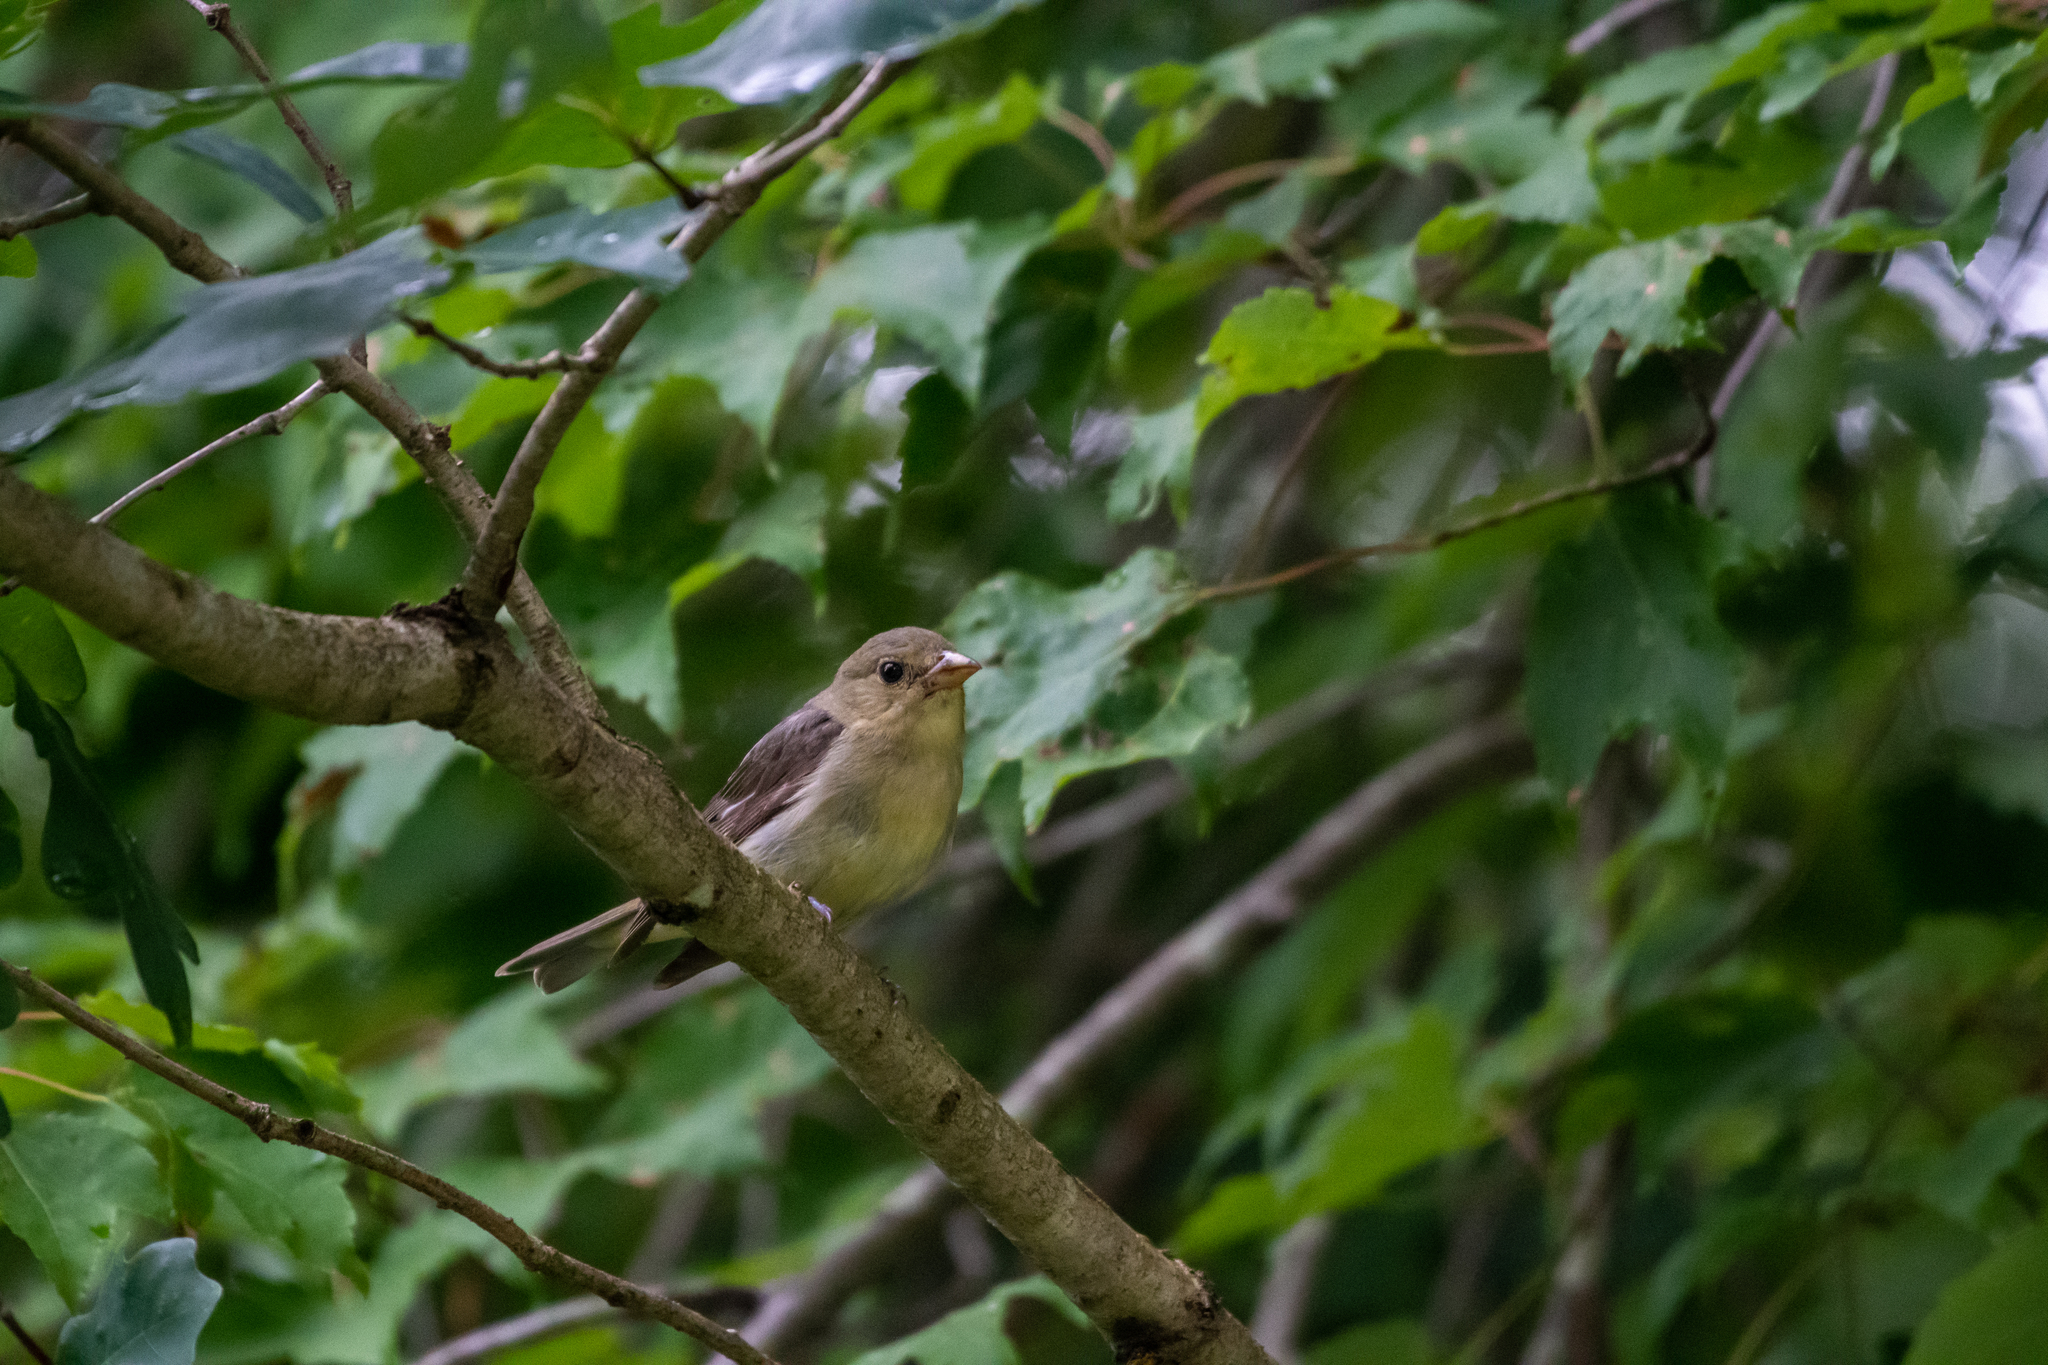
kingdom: Animalia
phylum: Chordata
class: Aves
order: Passeriformes
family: Cardinalidae
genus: Piranga
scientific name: Piranga olivacea
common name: Scarlet tanager
